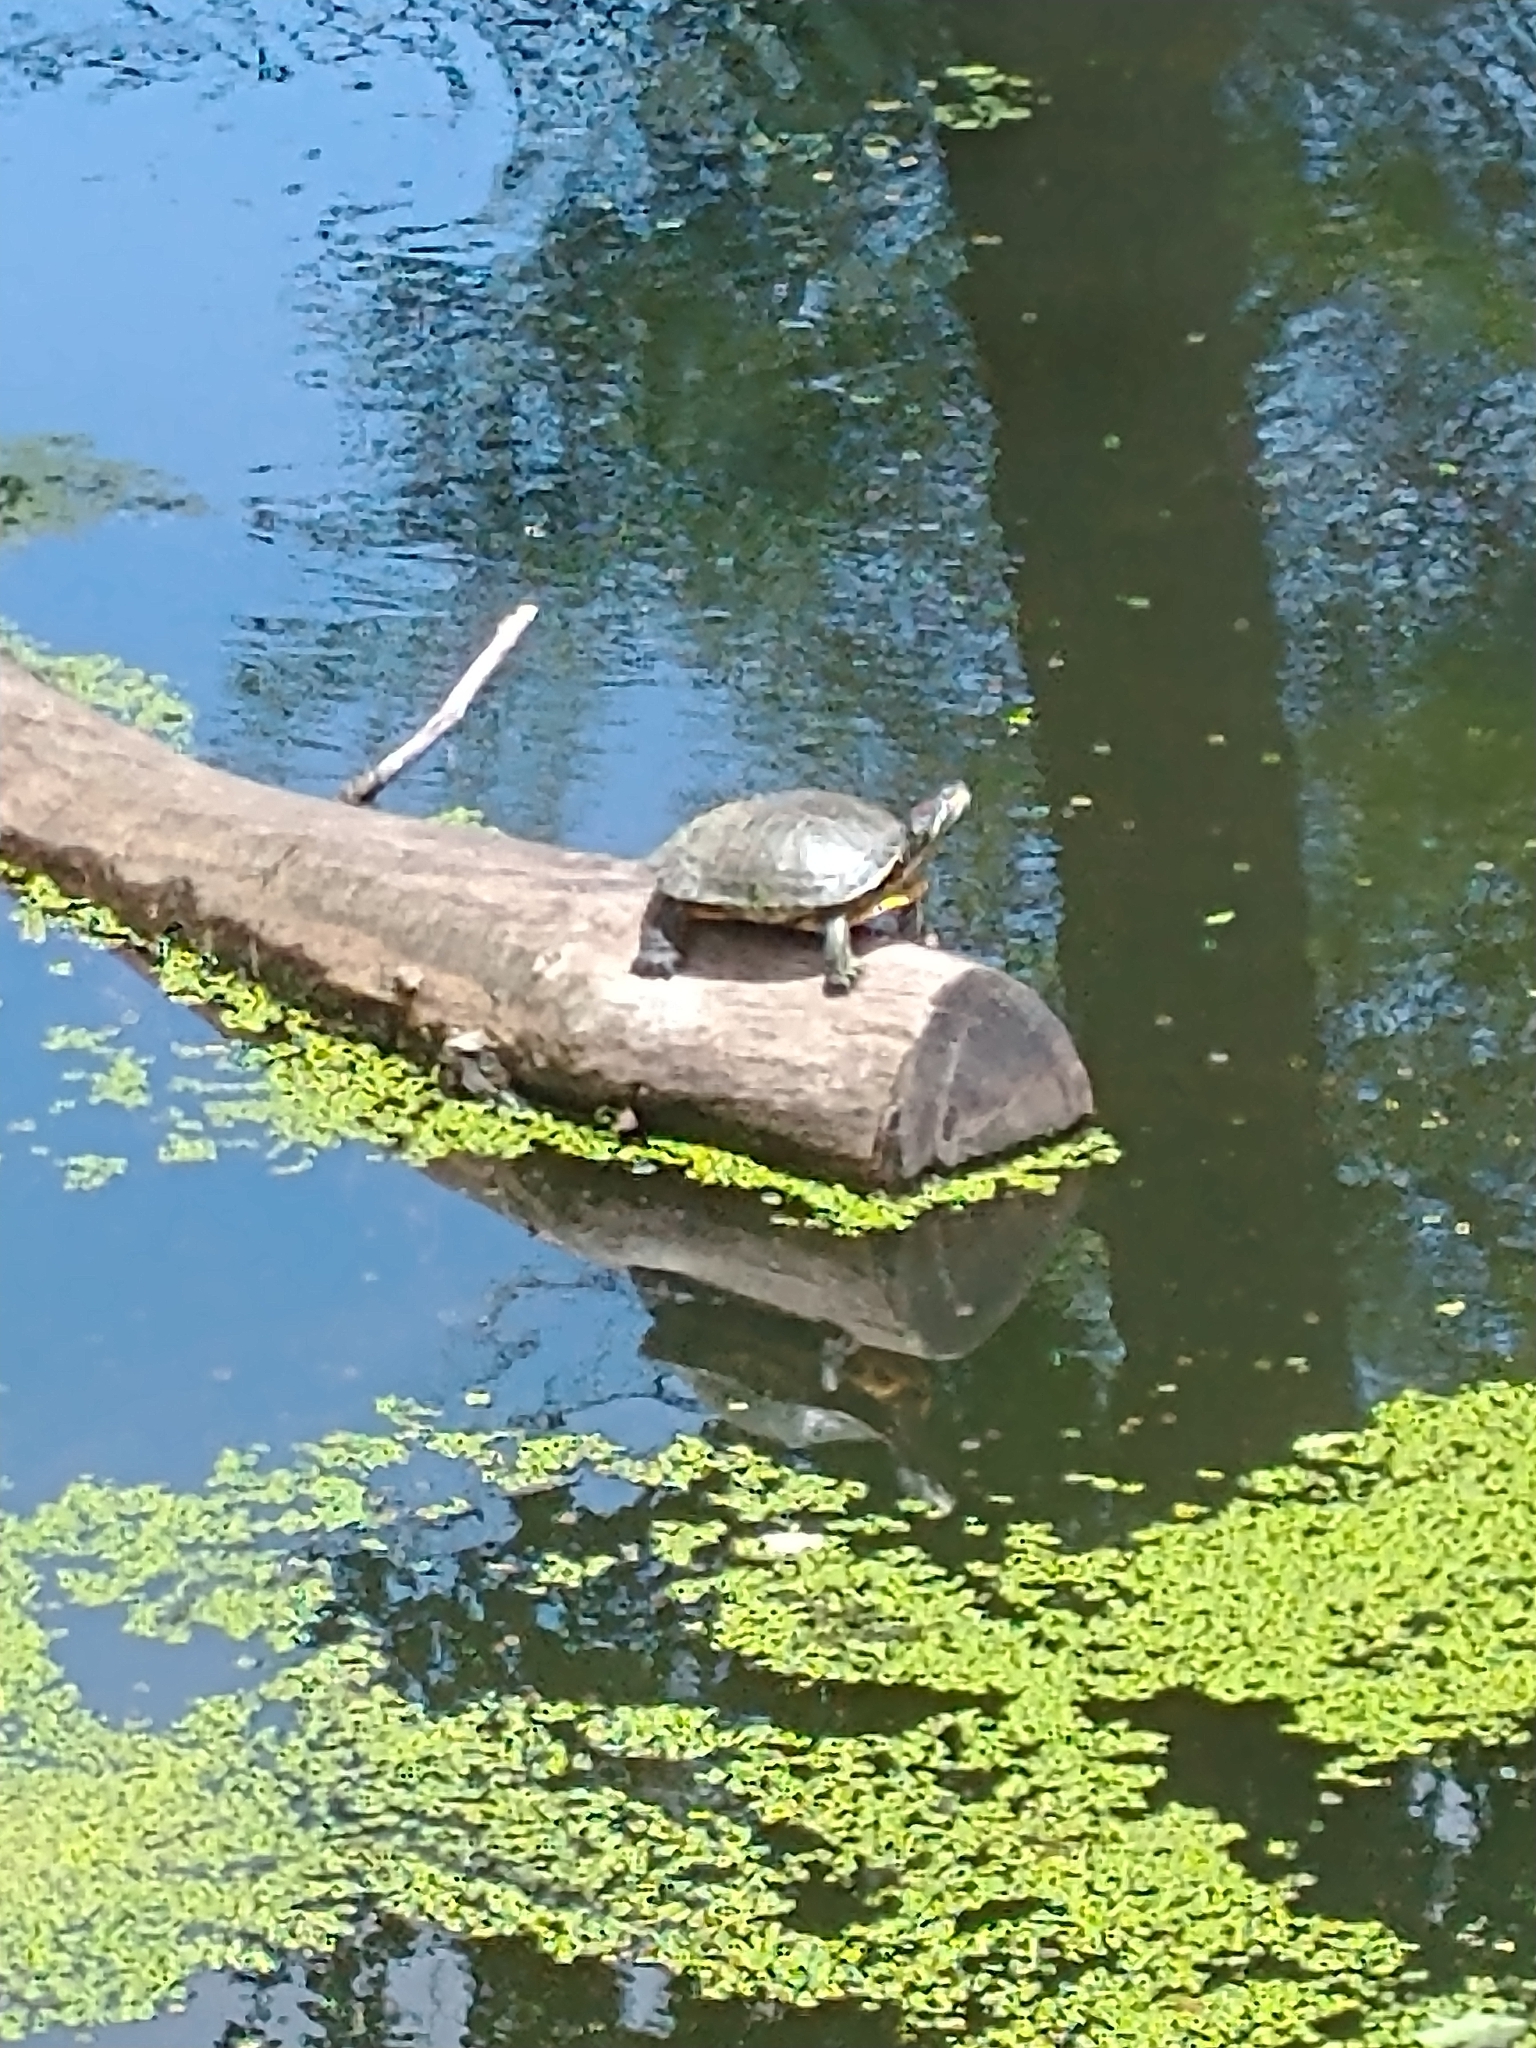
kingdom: Animalia
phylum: Chordata
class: Testudines
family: Emydidae
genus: Trachemys
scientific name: Trachemys scripta
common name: Slider
